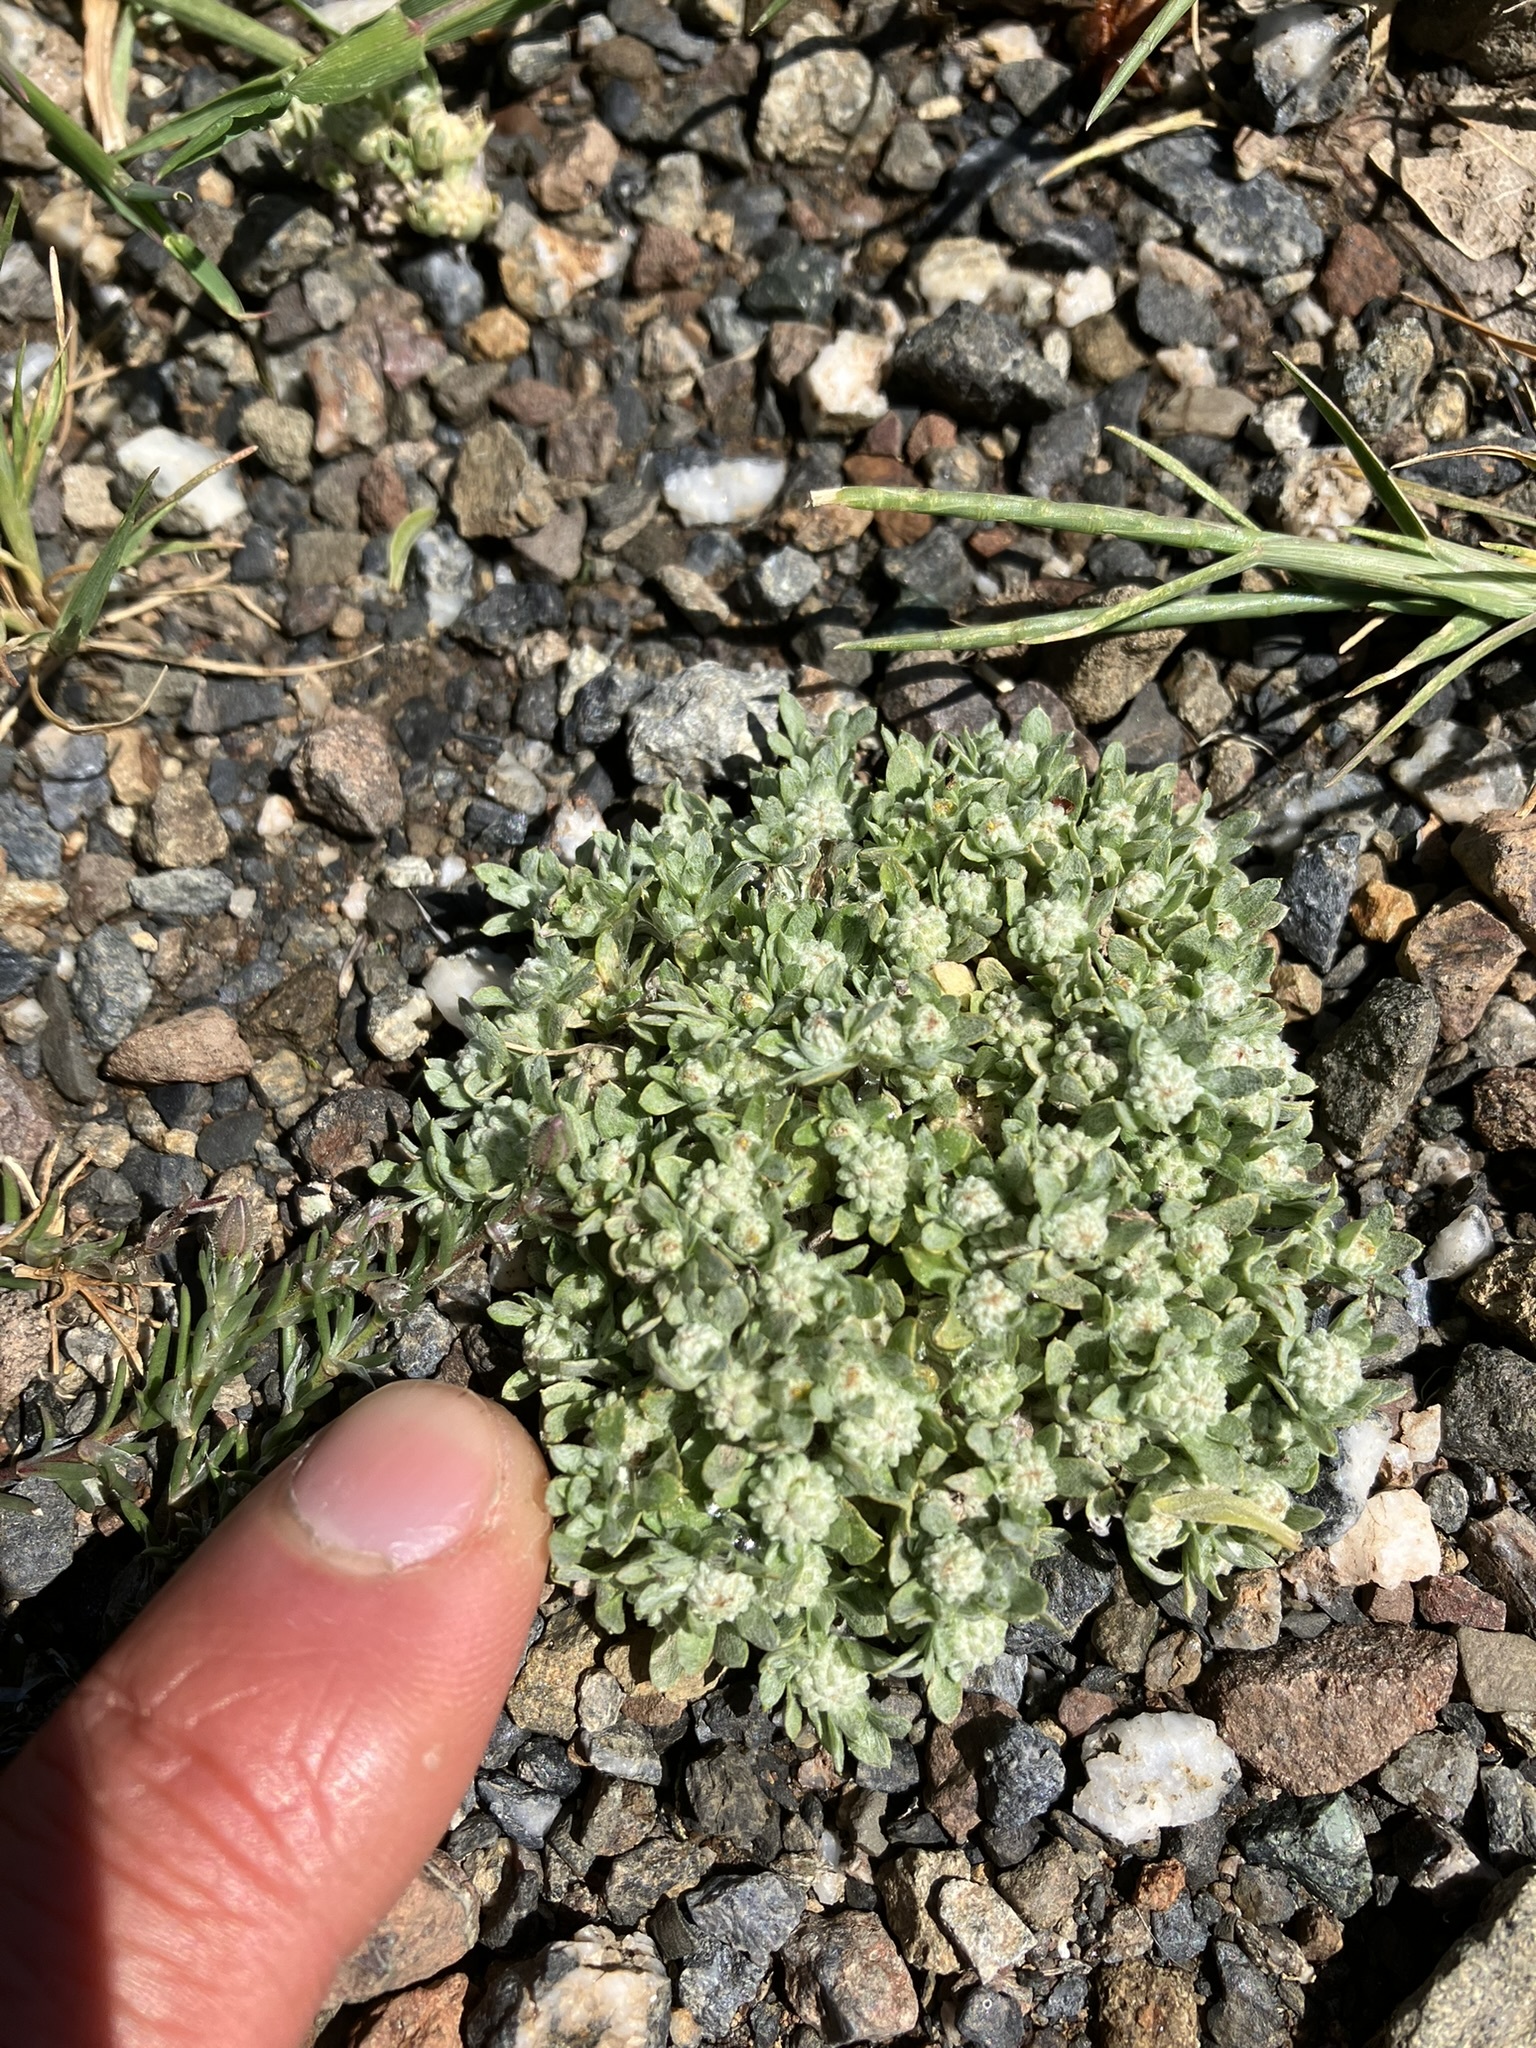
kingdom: Plantae
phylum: Tracheophyta
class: Magnoliopsida
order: Asterales
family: Asteraceae
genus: Psilocarphus
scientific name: Psilocarphus tenellus
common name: Slender woolly-marbles
